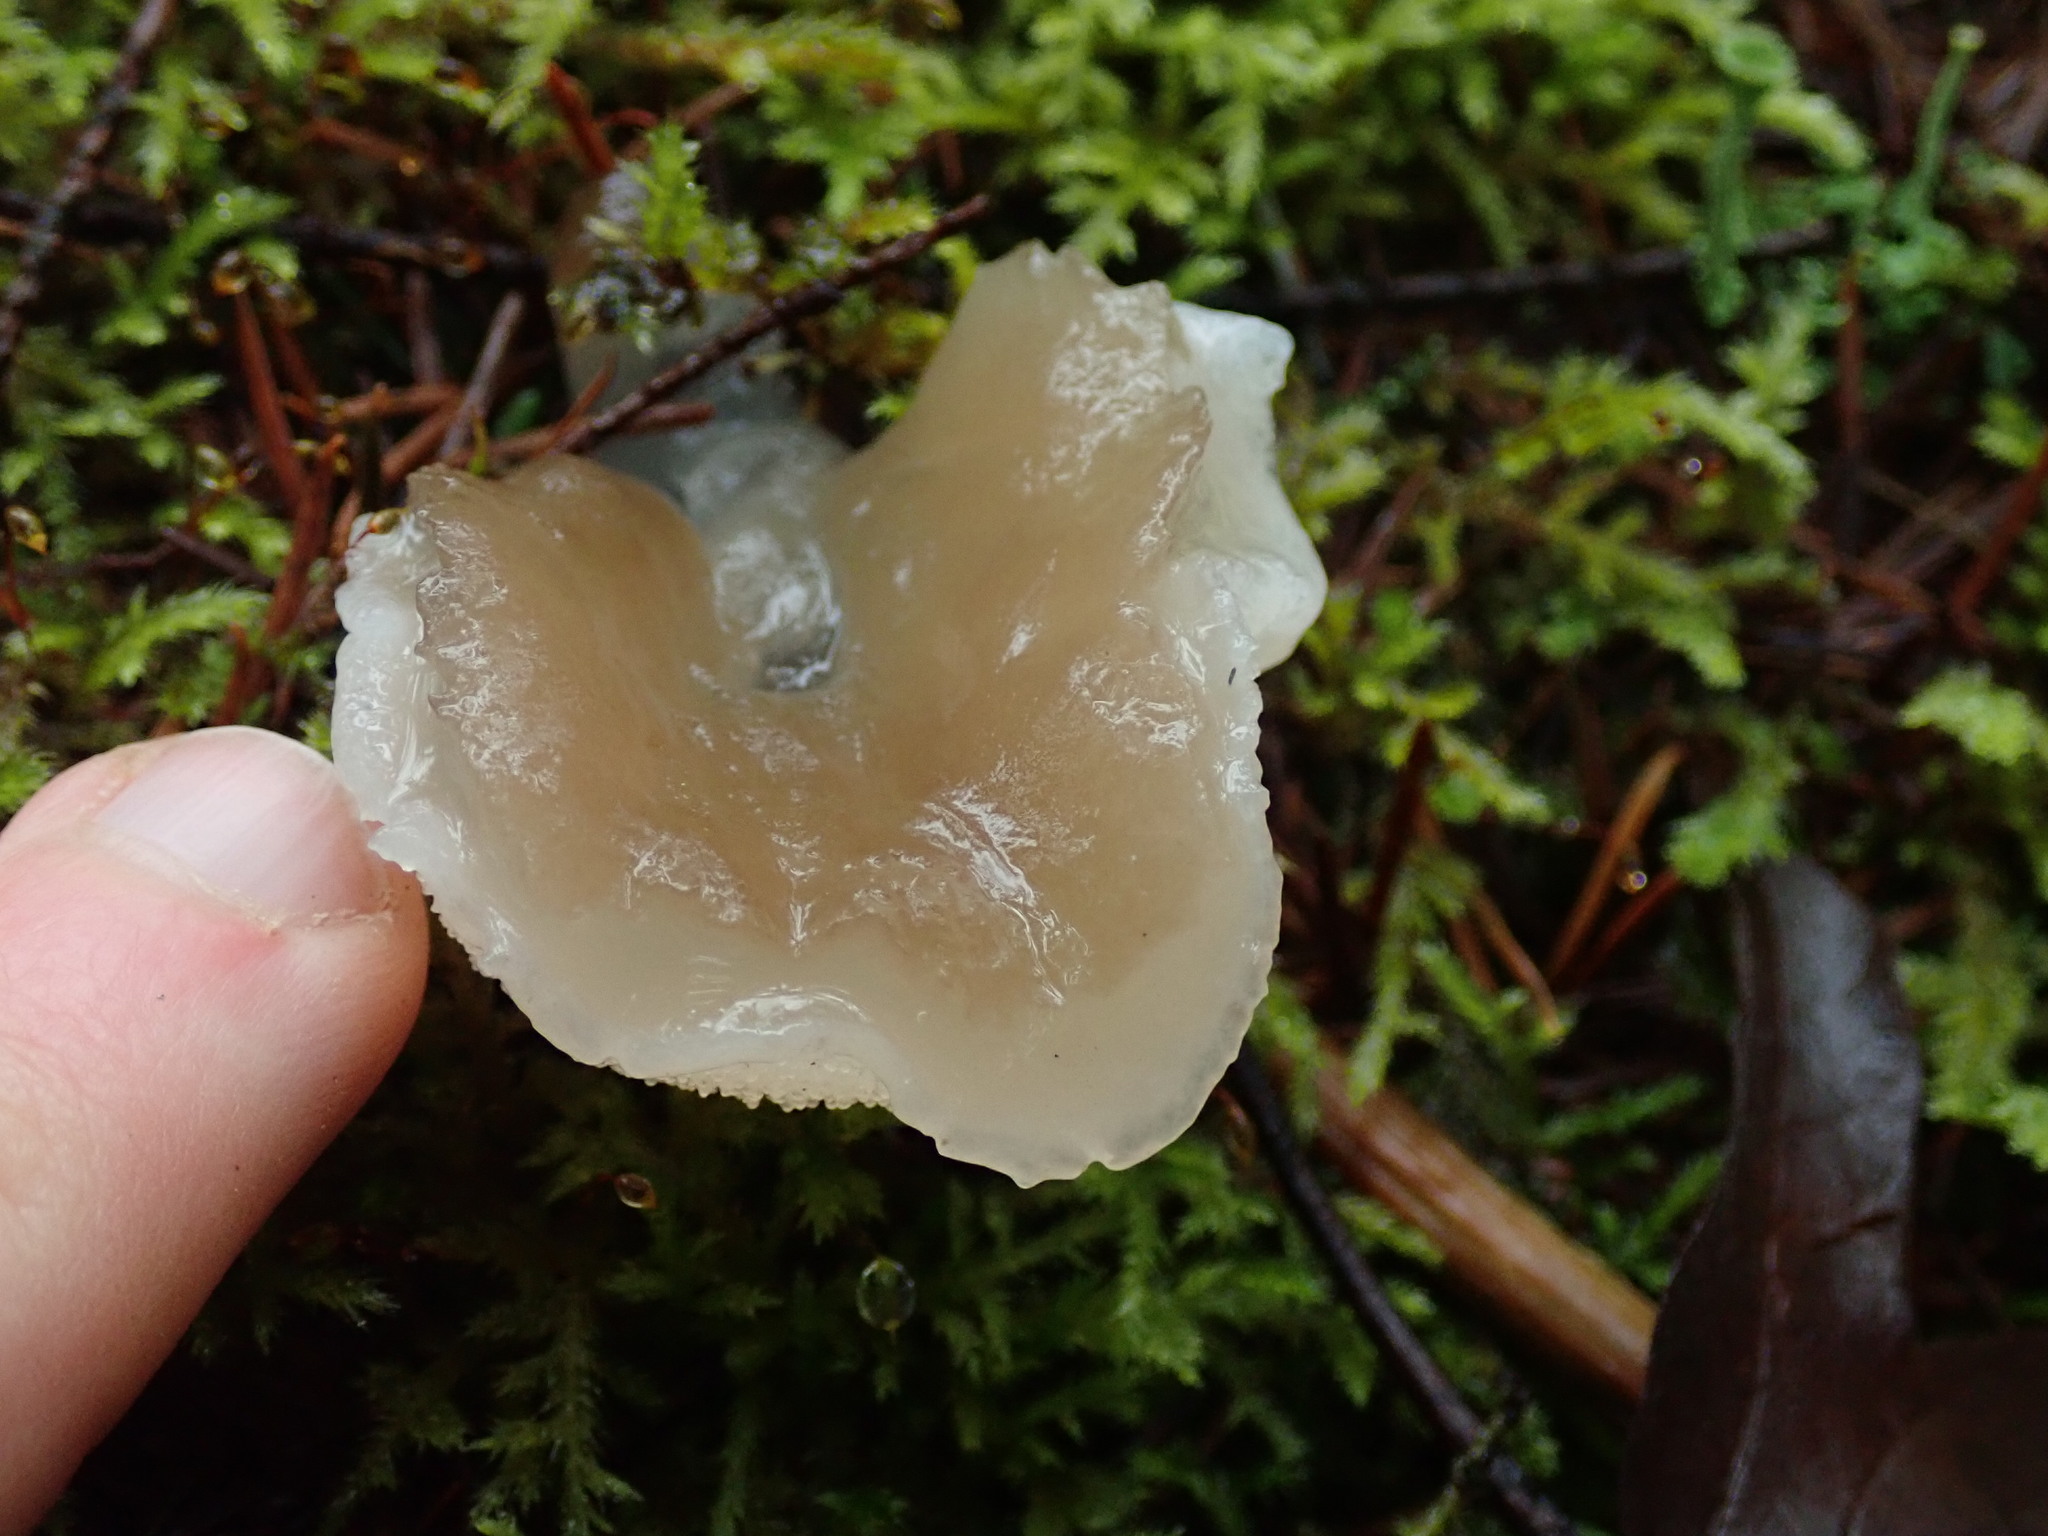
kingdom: Fungi
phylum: Basidiomycota
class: Agaricomycetes
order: Auriculariales
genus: Pseudohydnum
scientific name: Pseudohydnum gelatinosum
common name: Jelly tongue
